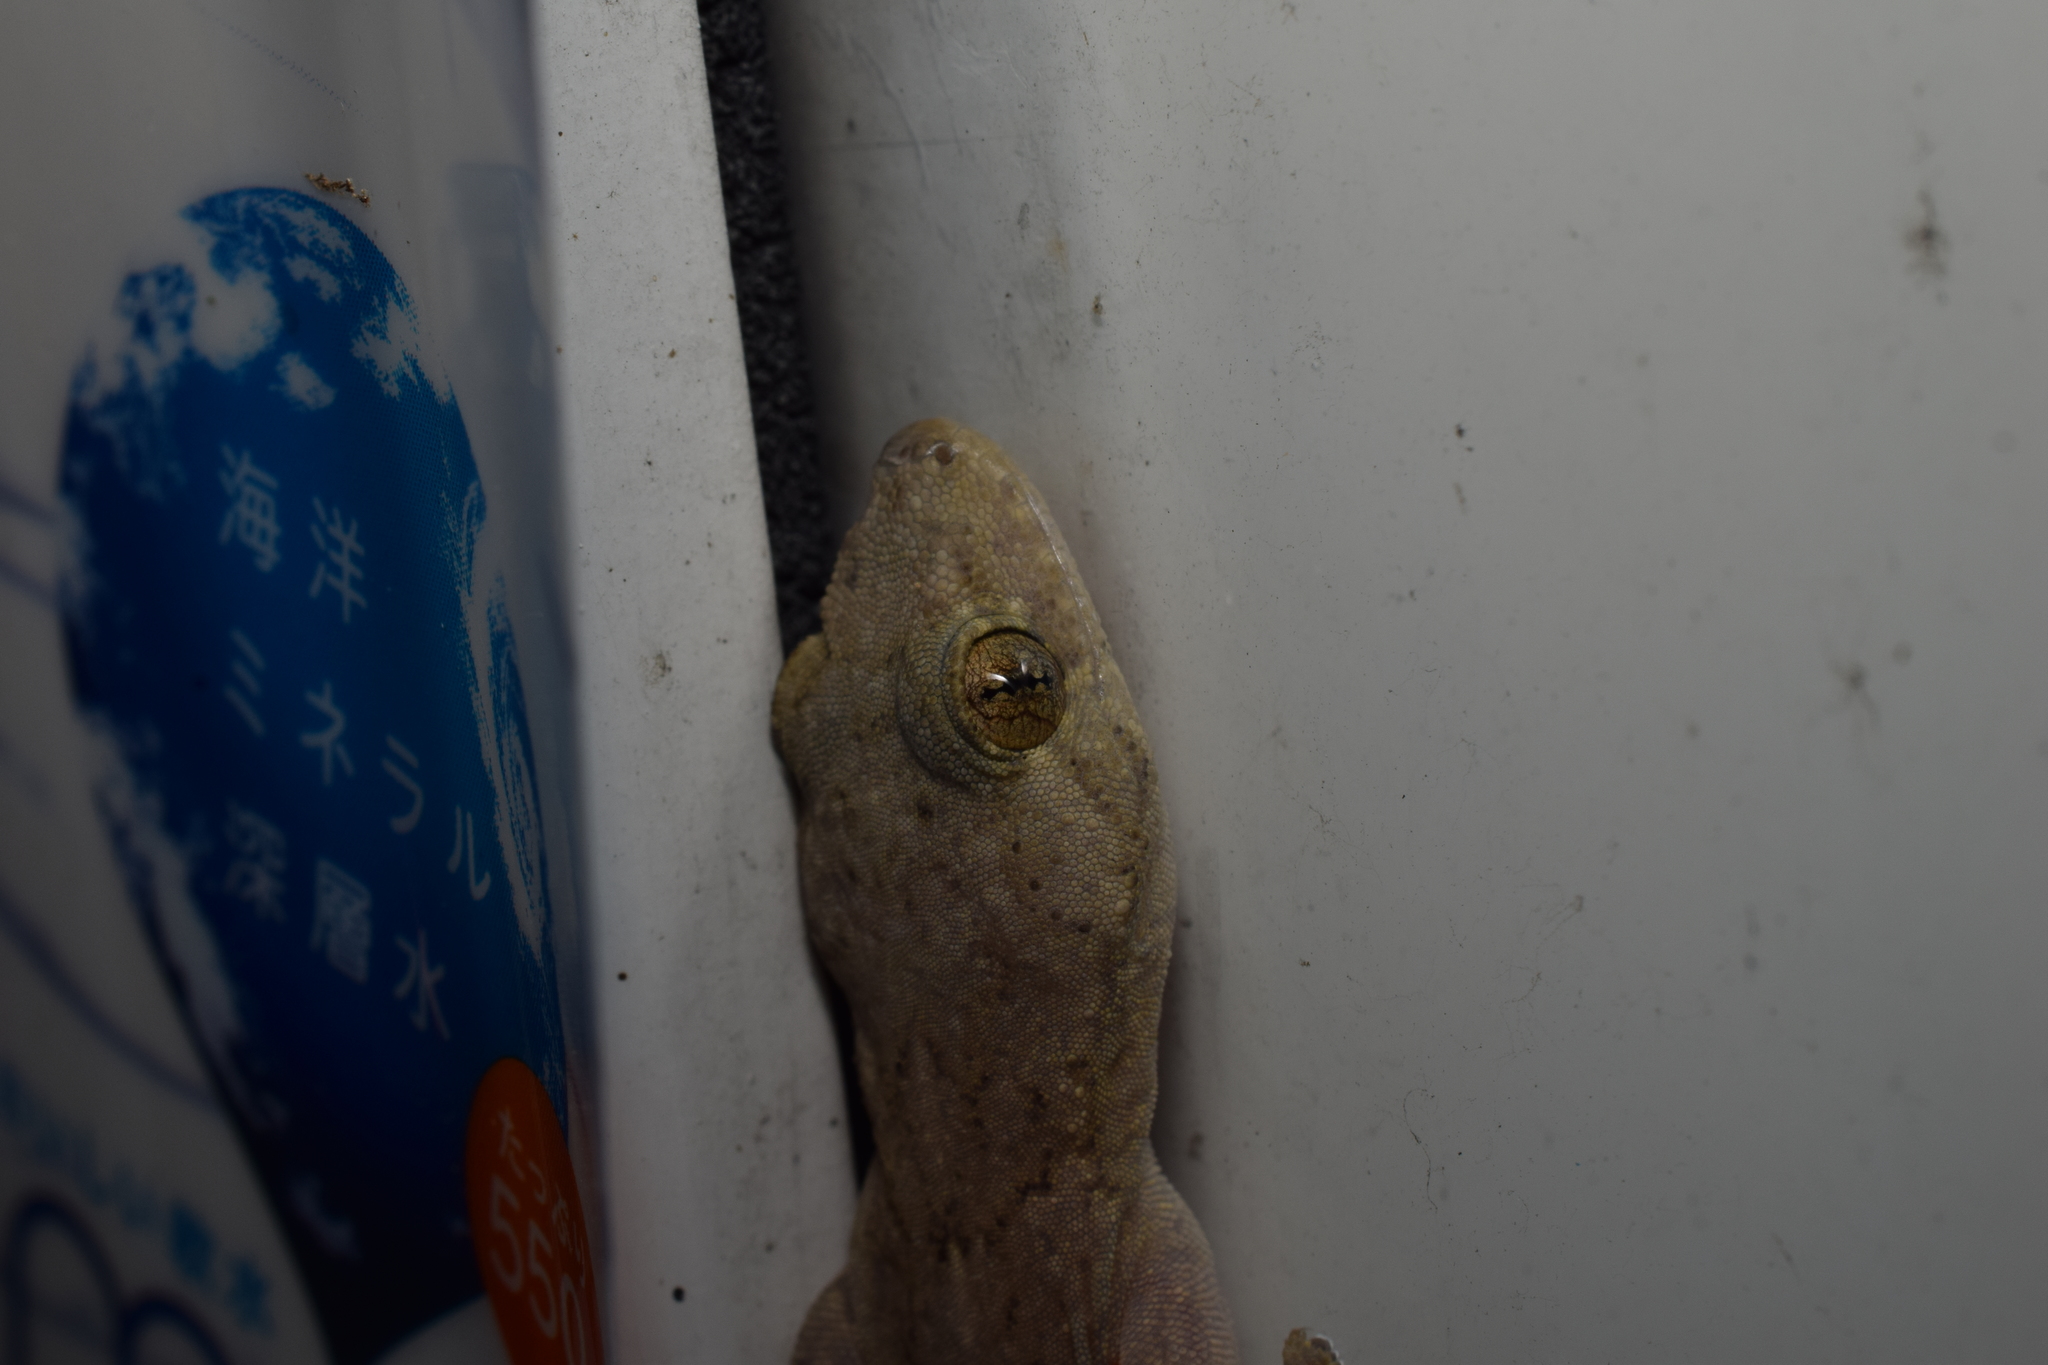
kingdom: Animalia
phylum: Chordata
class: Squamata
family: Gekkonidae
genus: Gekko
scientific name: Gekko japonicus
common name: Schlegel's japanese gecko
